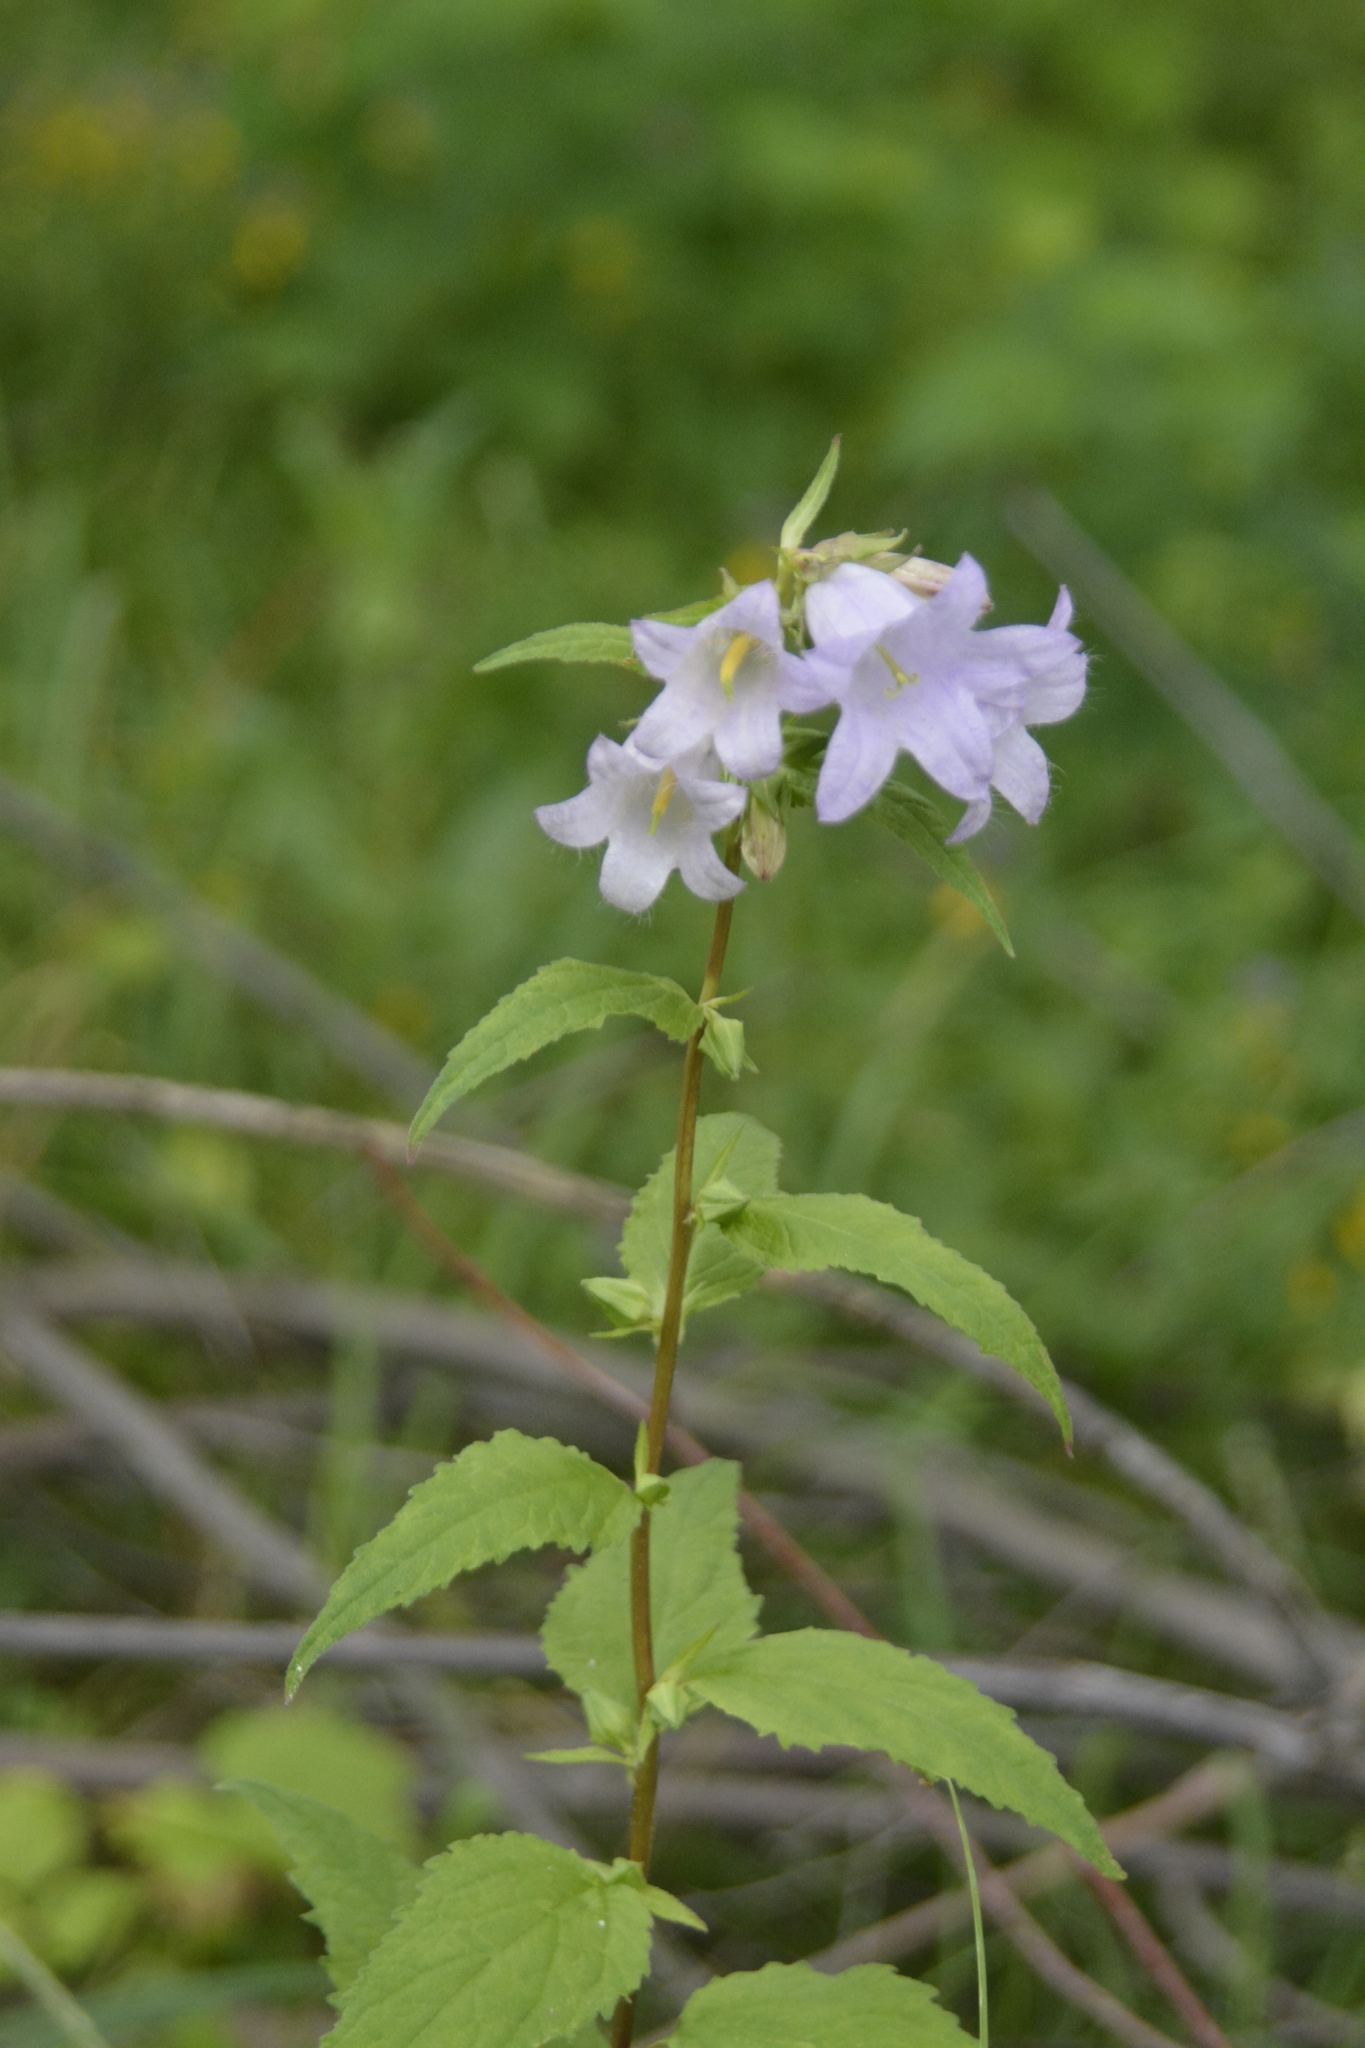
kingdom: Plantae
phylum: Tracheophyta
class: Magnoliopsida
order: Asterales
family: Campanulaceae
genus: Campanula
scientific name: Campanula trachelium
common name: Nettle-leaved bellflower
